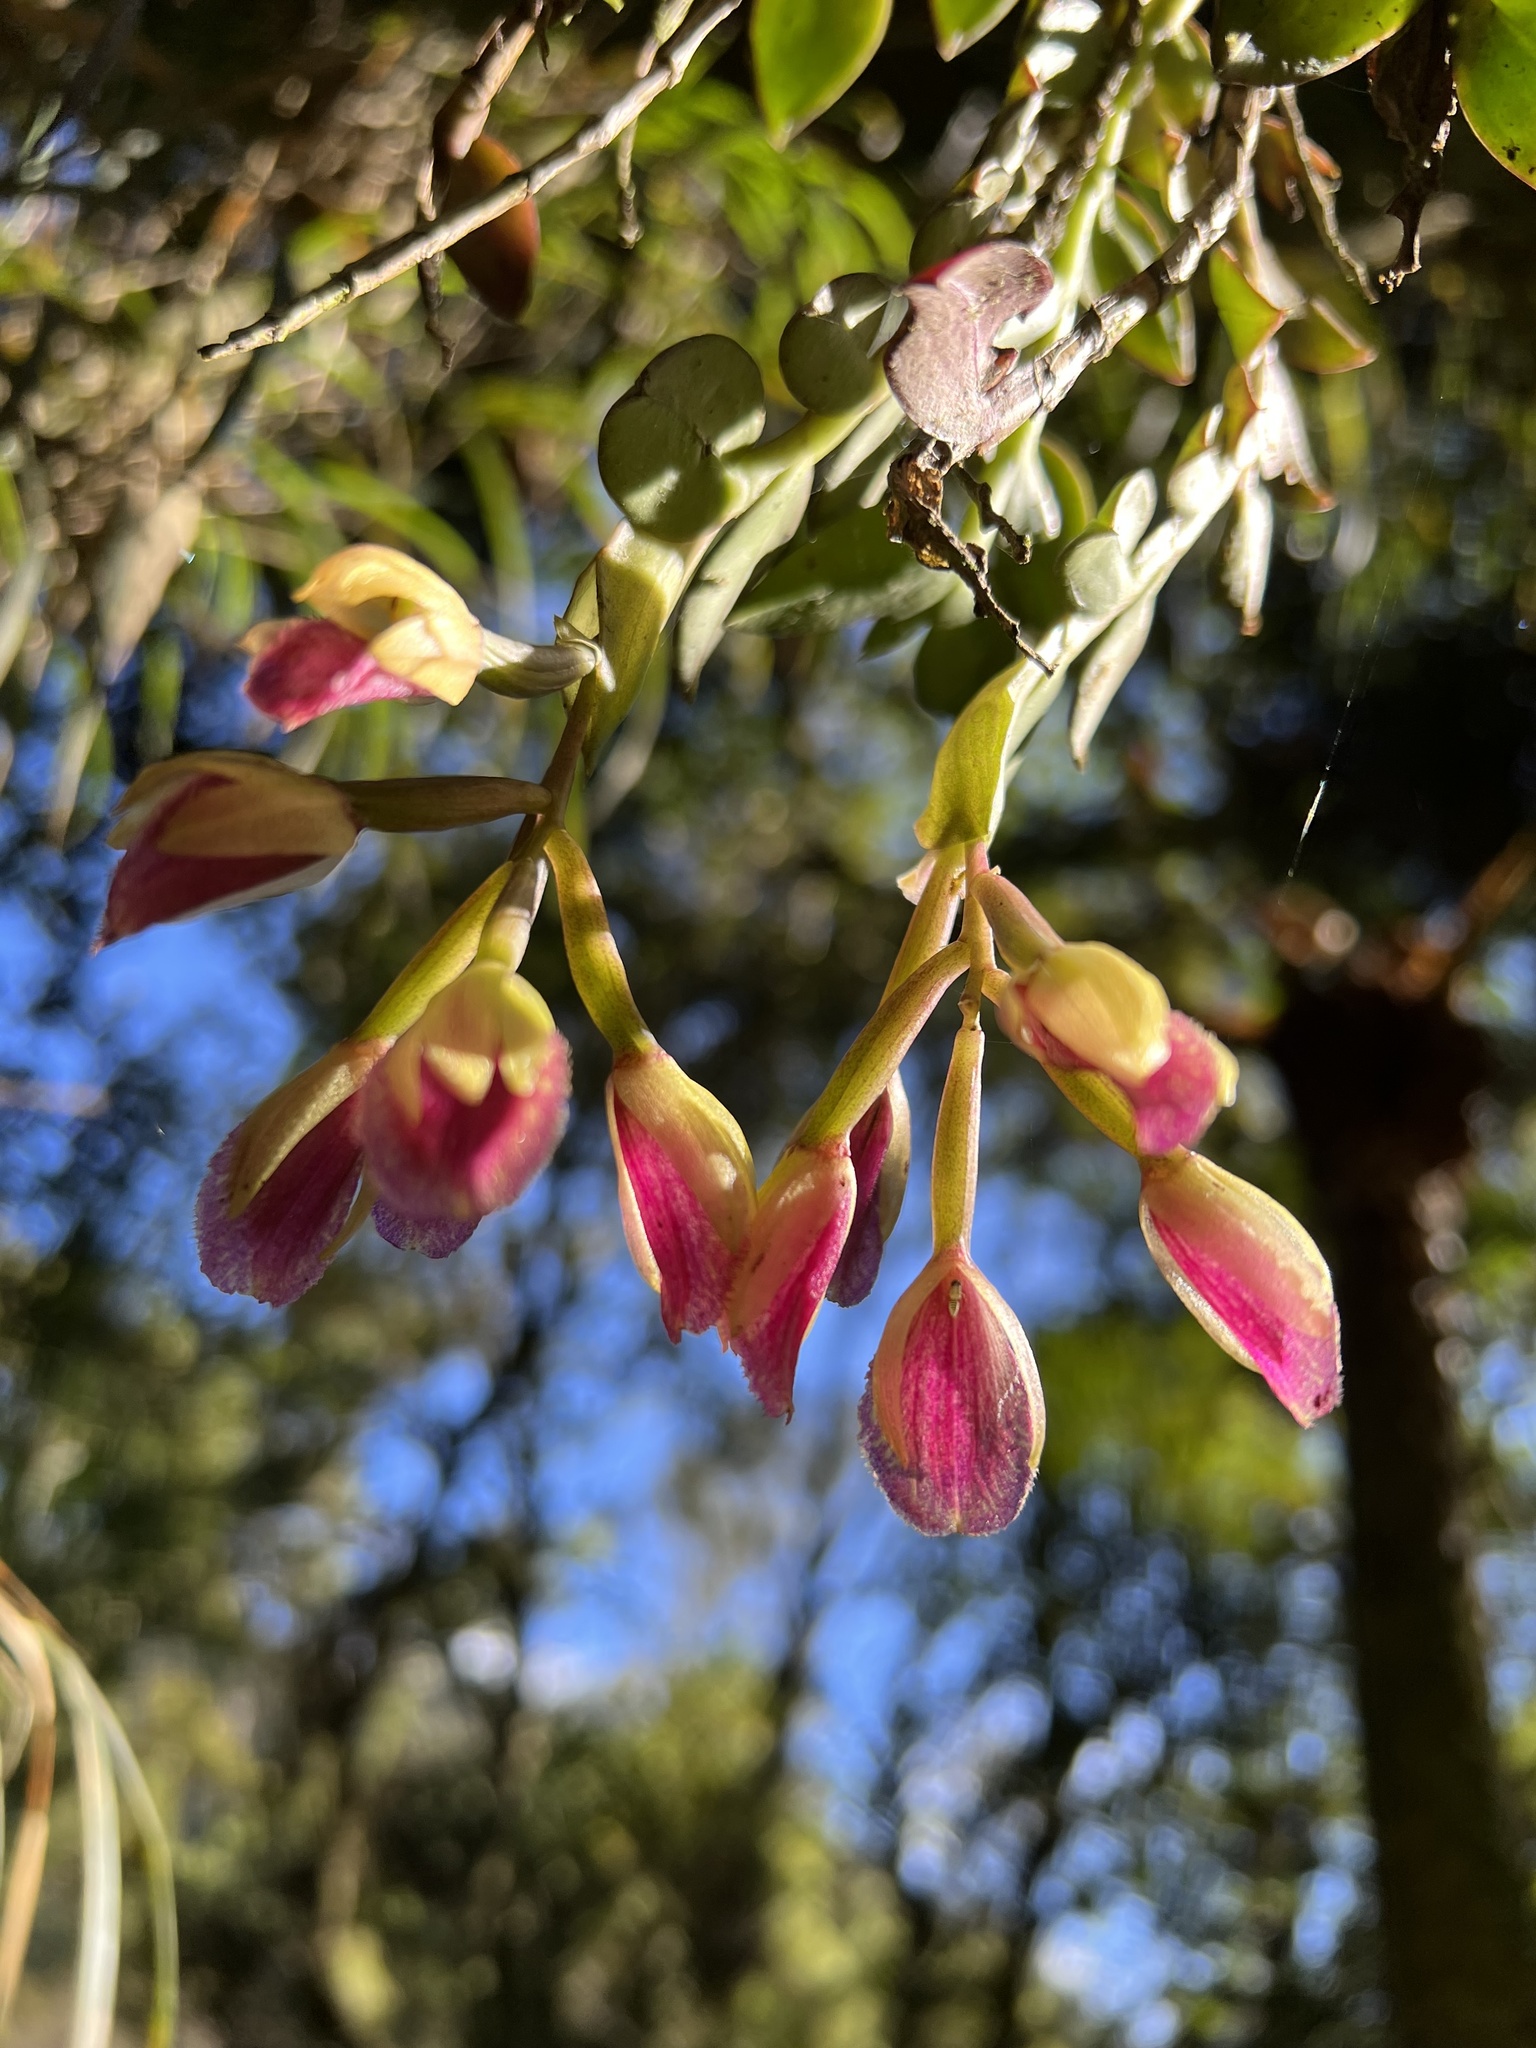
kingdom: Plantae
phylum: Tracheophyta
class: Liliopsida
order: Asparagales
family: Orchidaceae
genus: Epidendrum
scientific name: Epidendrum megalospathum
